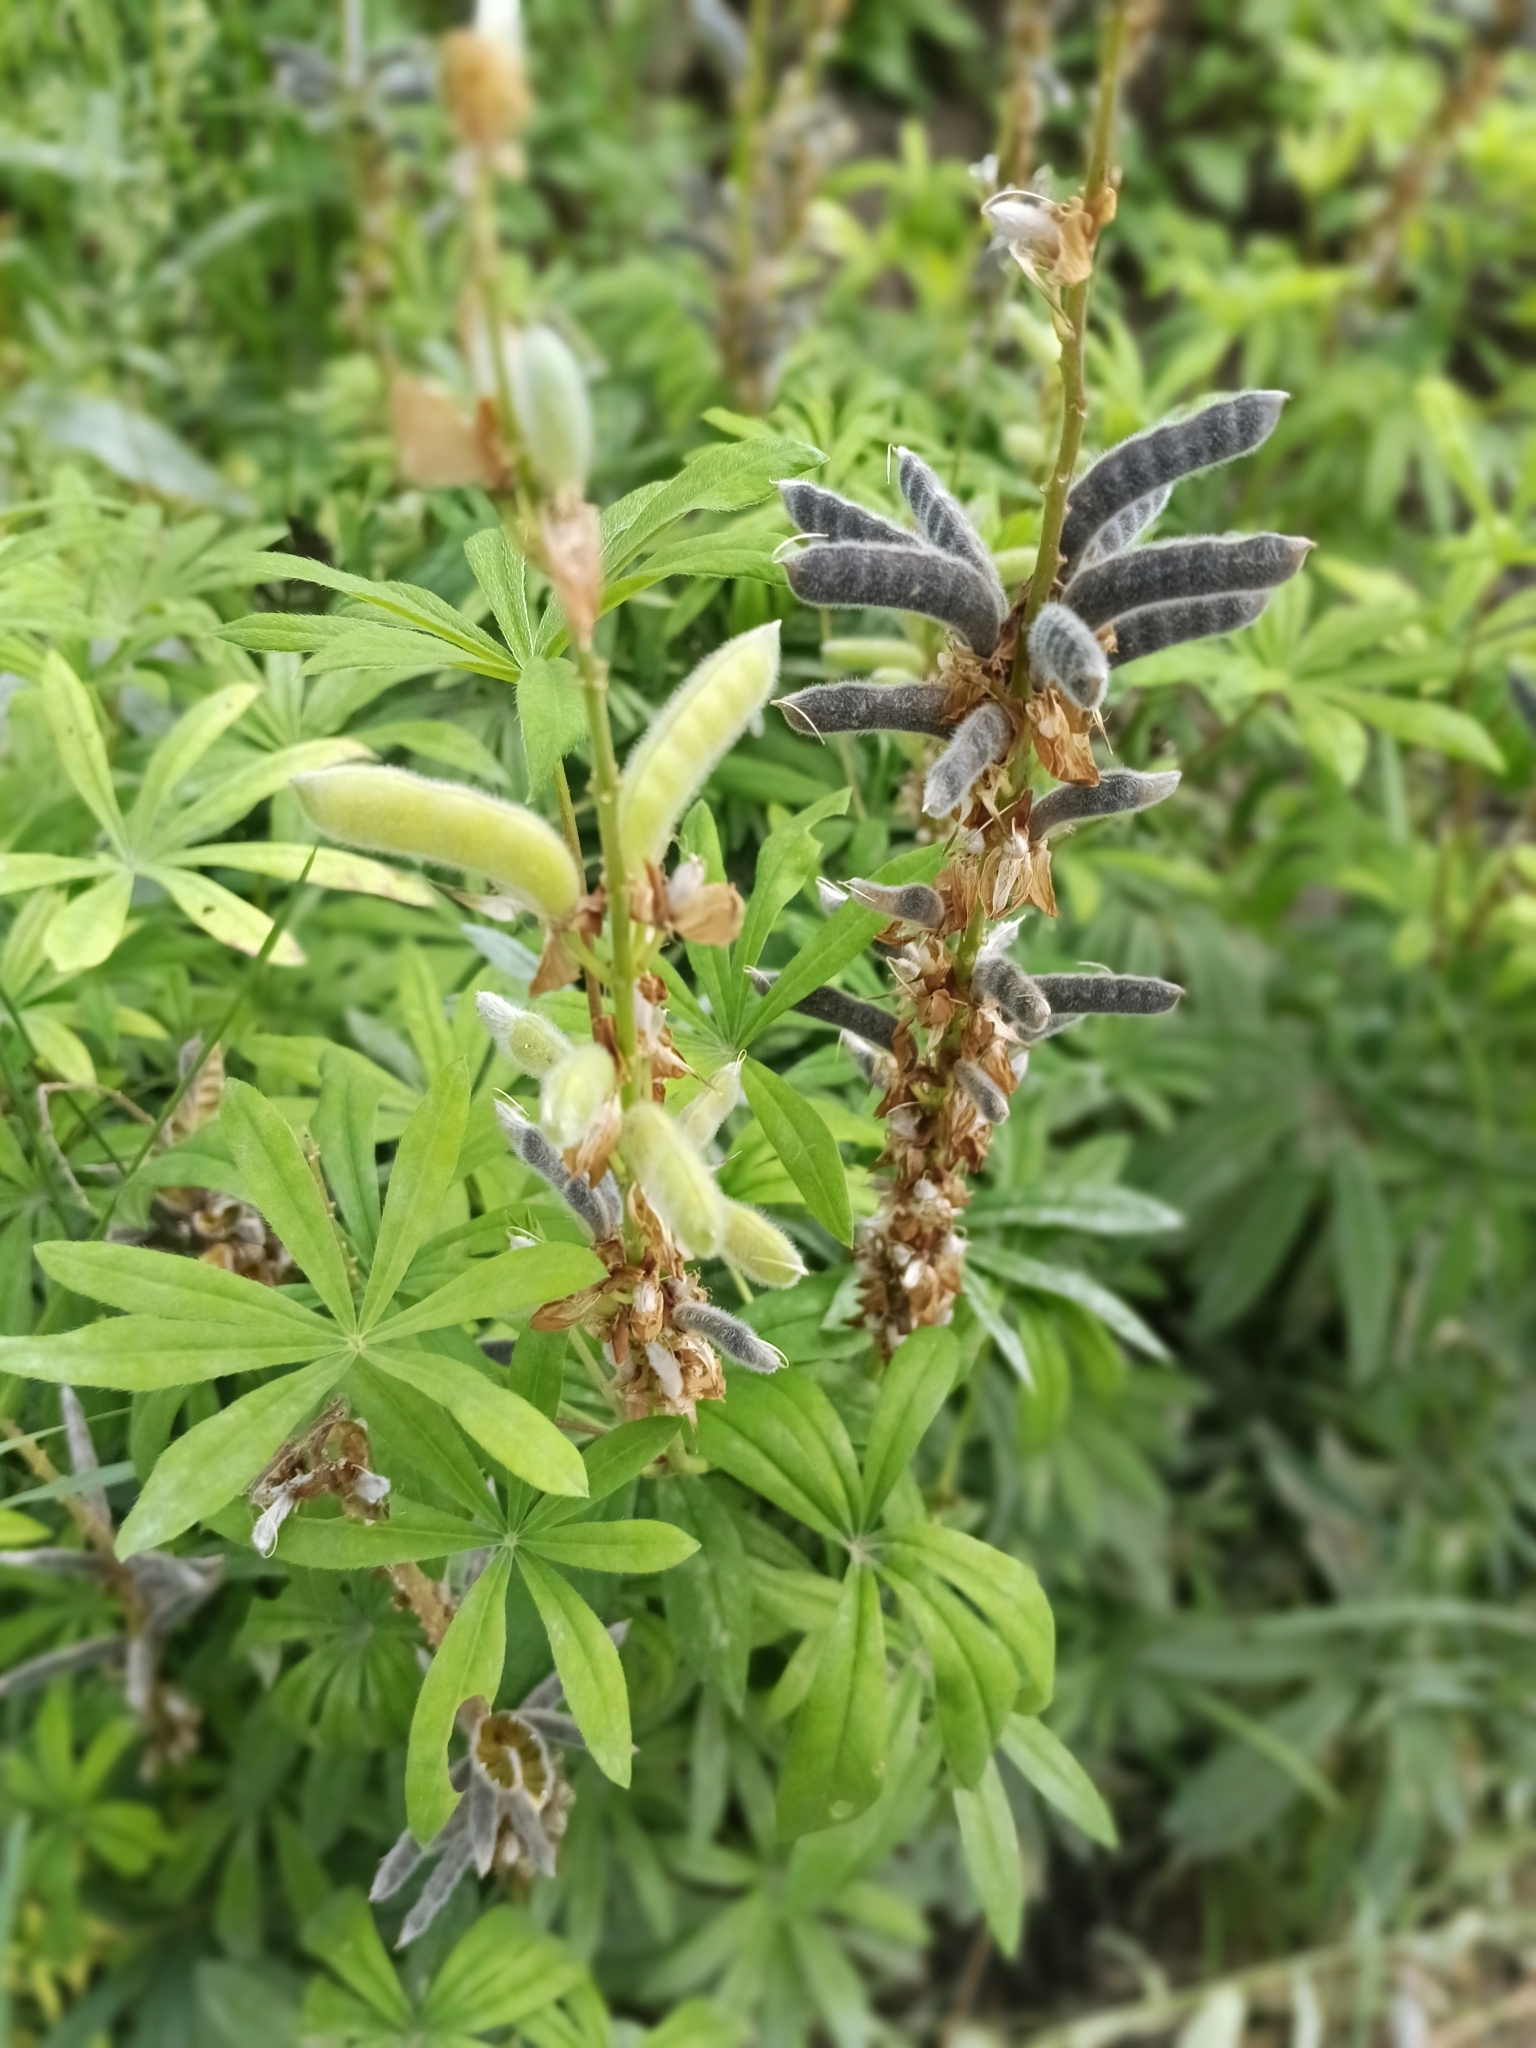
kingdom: Plantae
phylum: Tracheophyta
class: Magnoliopsida
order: Fabales
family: Fabaceae
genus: Lupinus
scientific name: Lupinus polyphyllus
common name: Garden lupin
